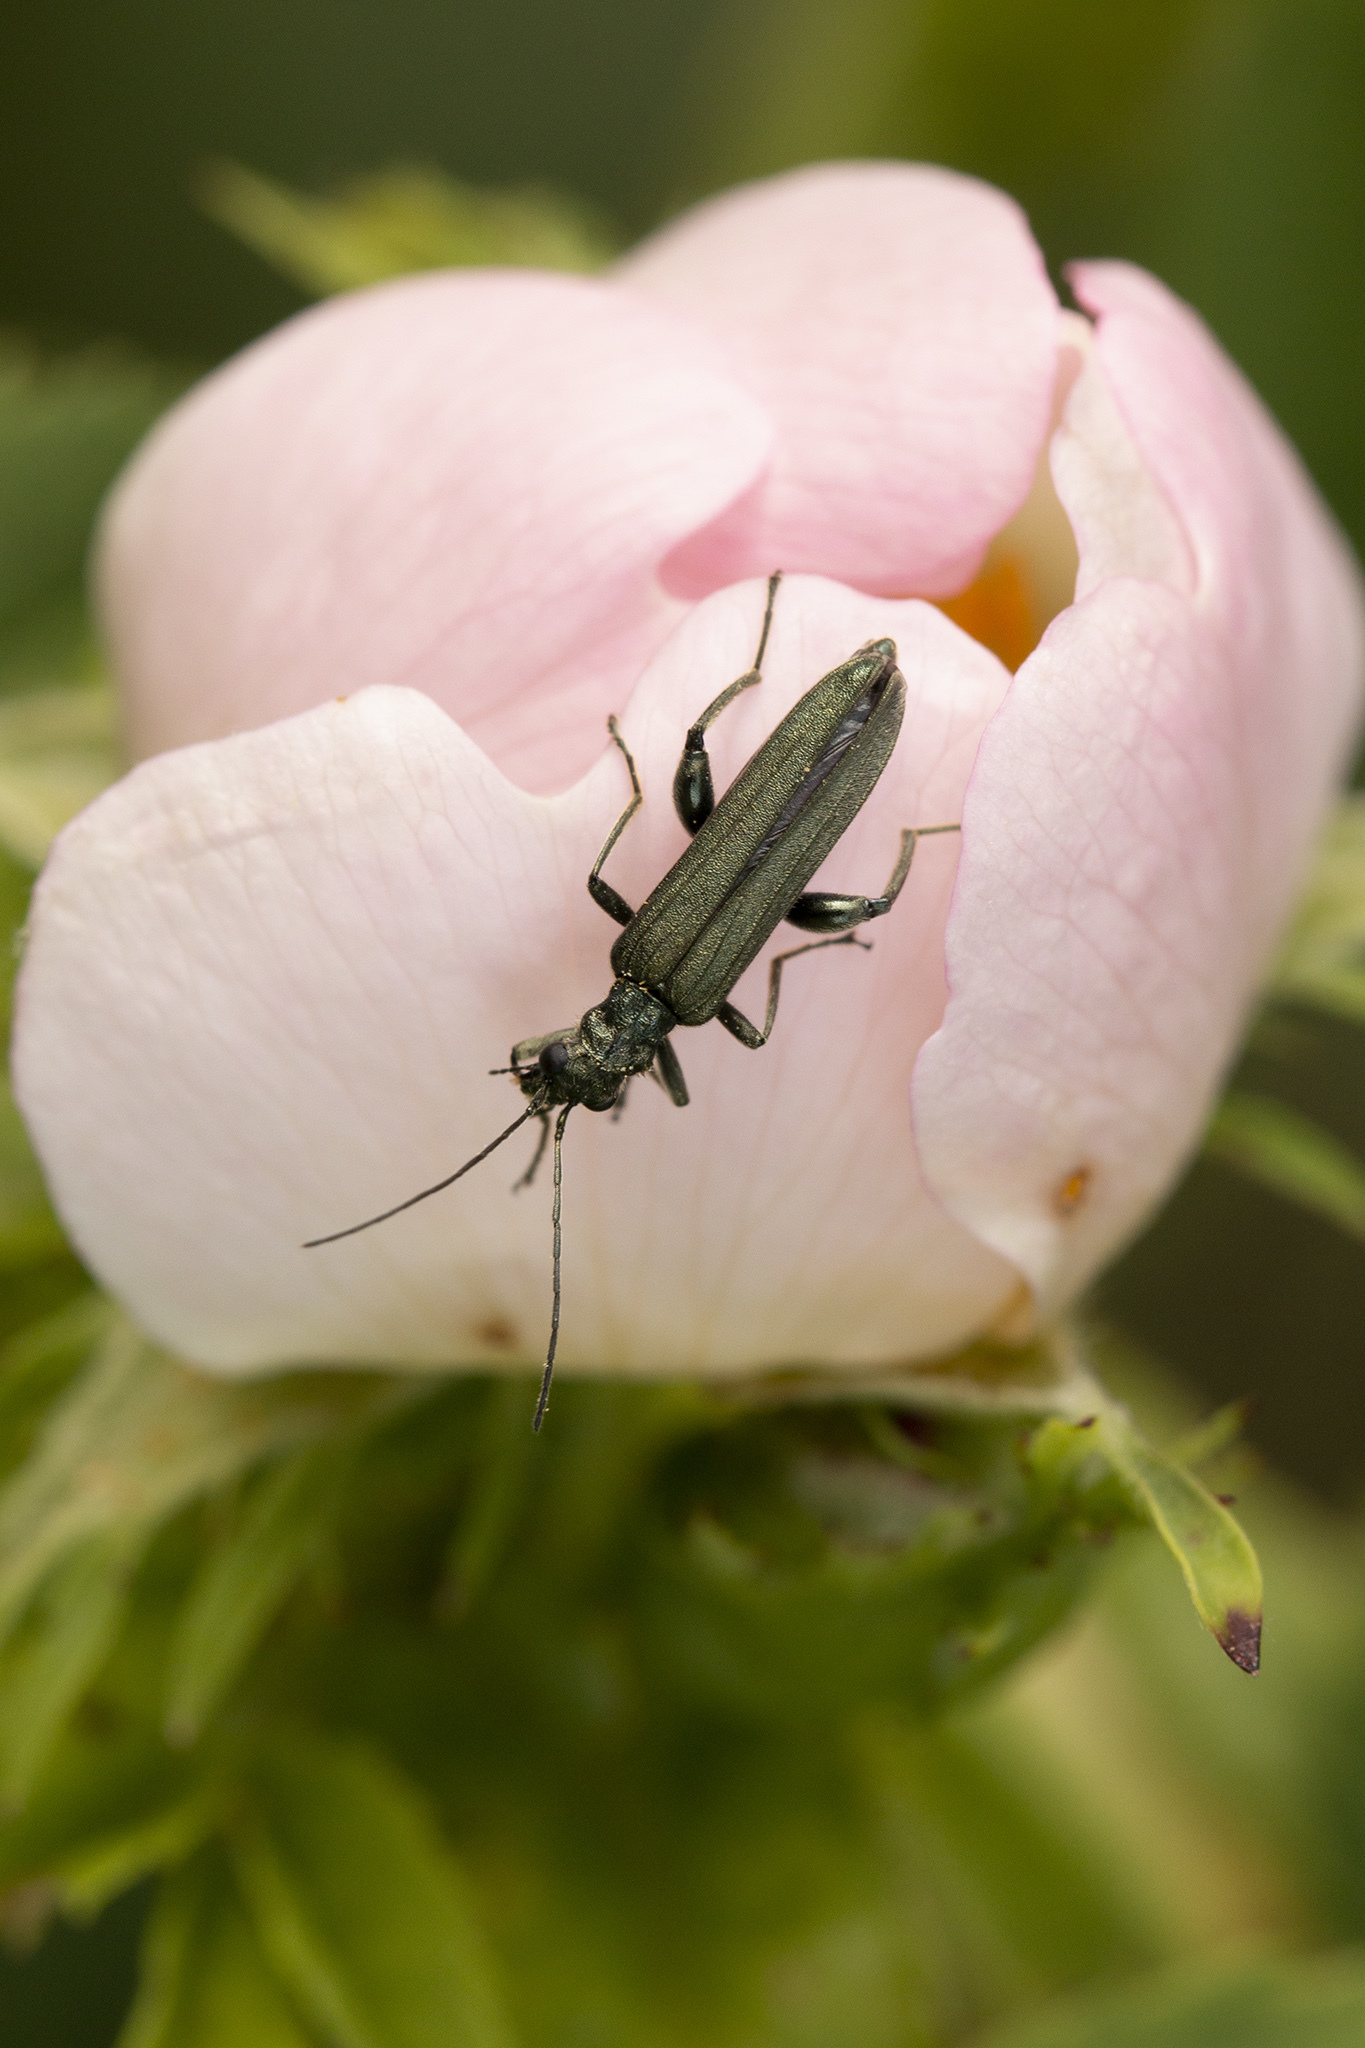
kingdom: Animalia
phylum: Arthropoda
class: Insecta
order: Coleoptera
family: Oedemeridae
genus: Oedemera
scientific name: Oedemera virescens
